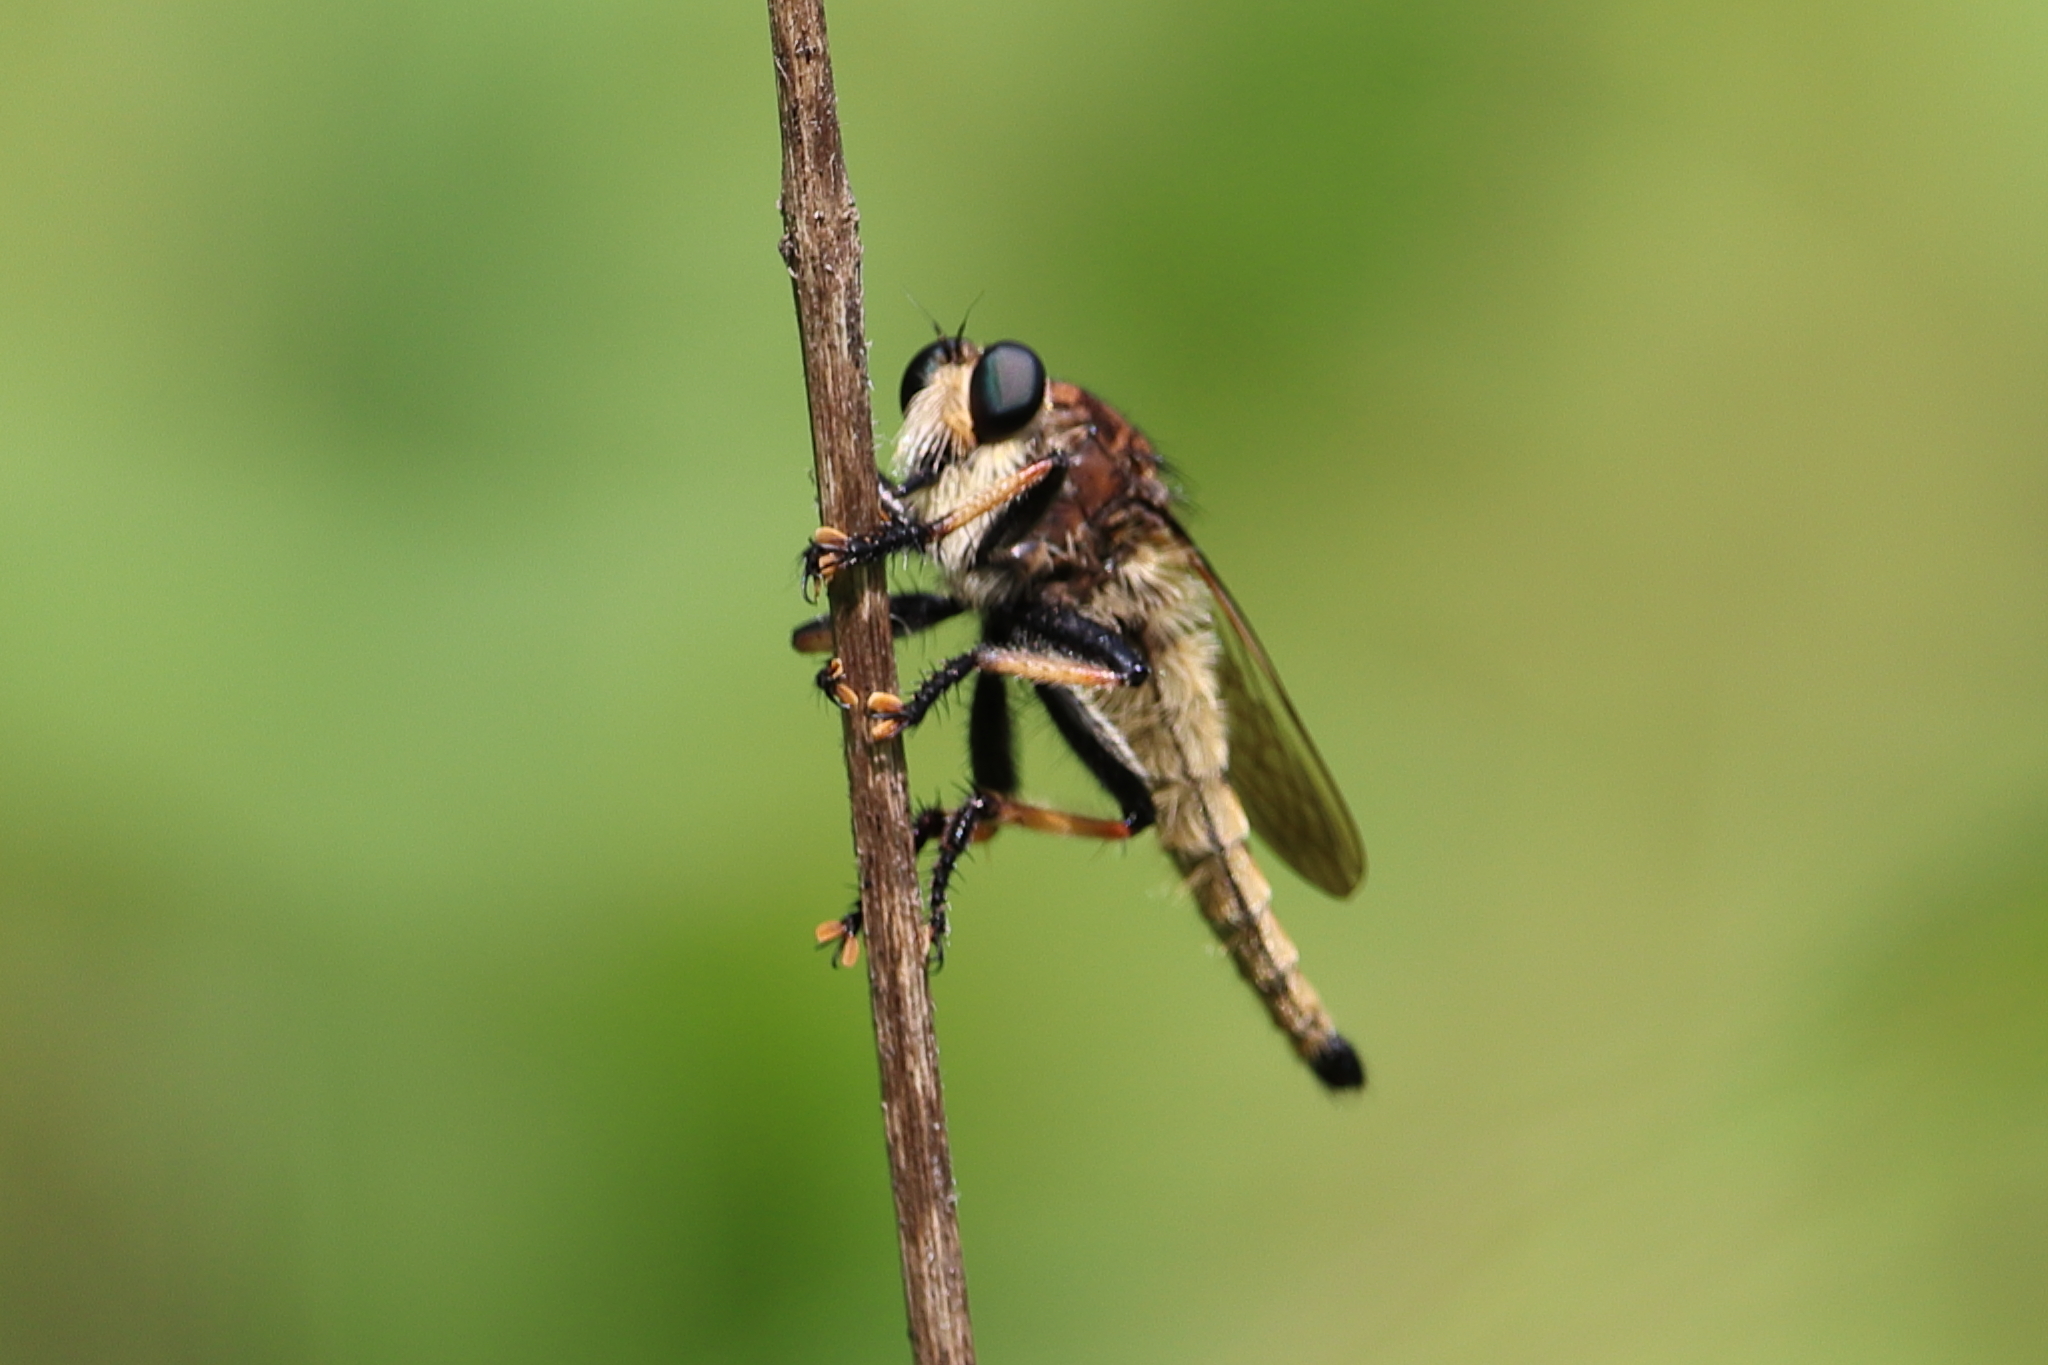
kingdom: Animalia
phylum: Arthropoda
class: Insecta
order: Diptera
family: Asilidae
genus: Promachus
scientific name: Promachus rufipes
